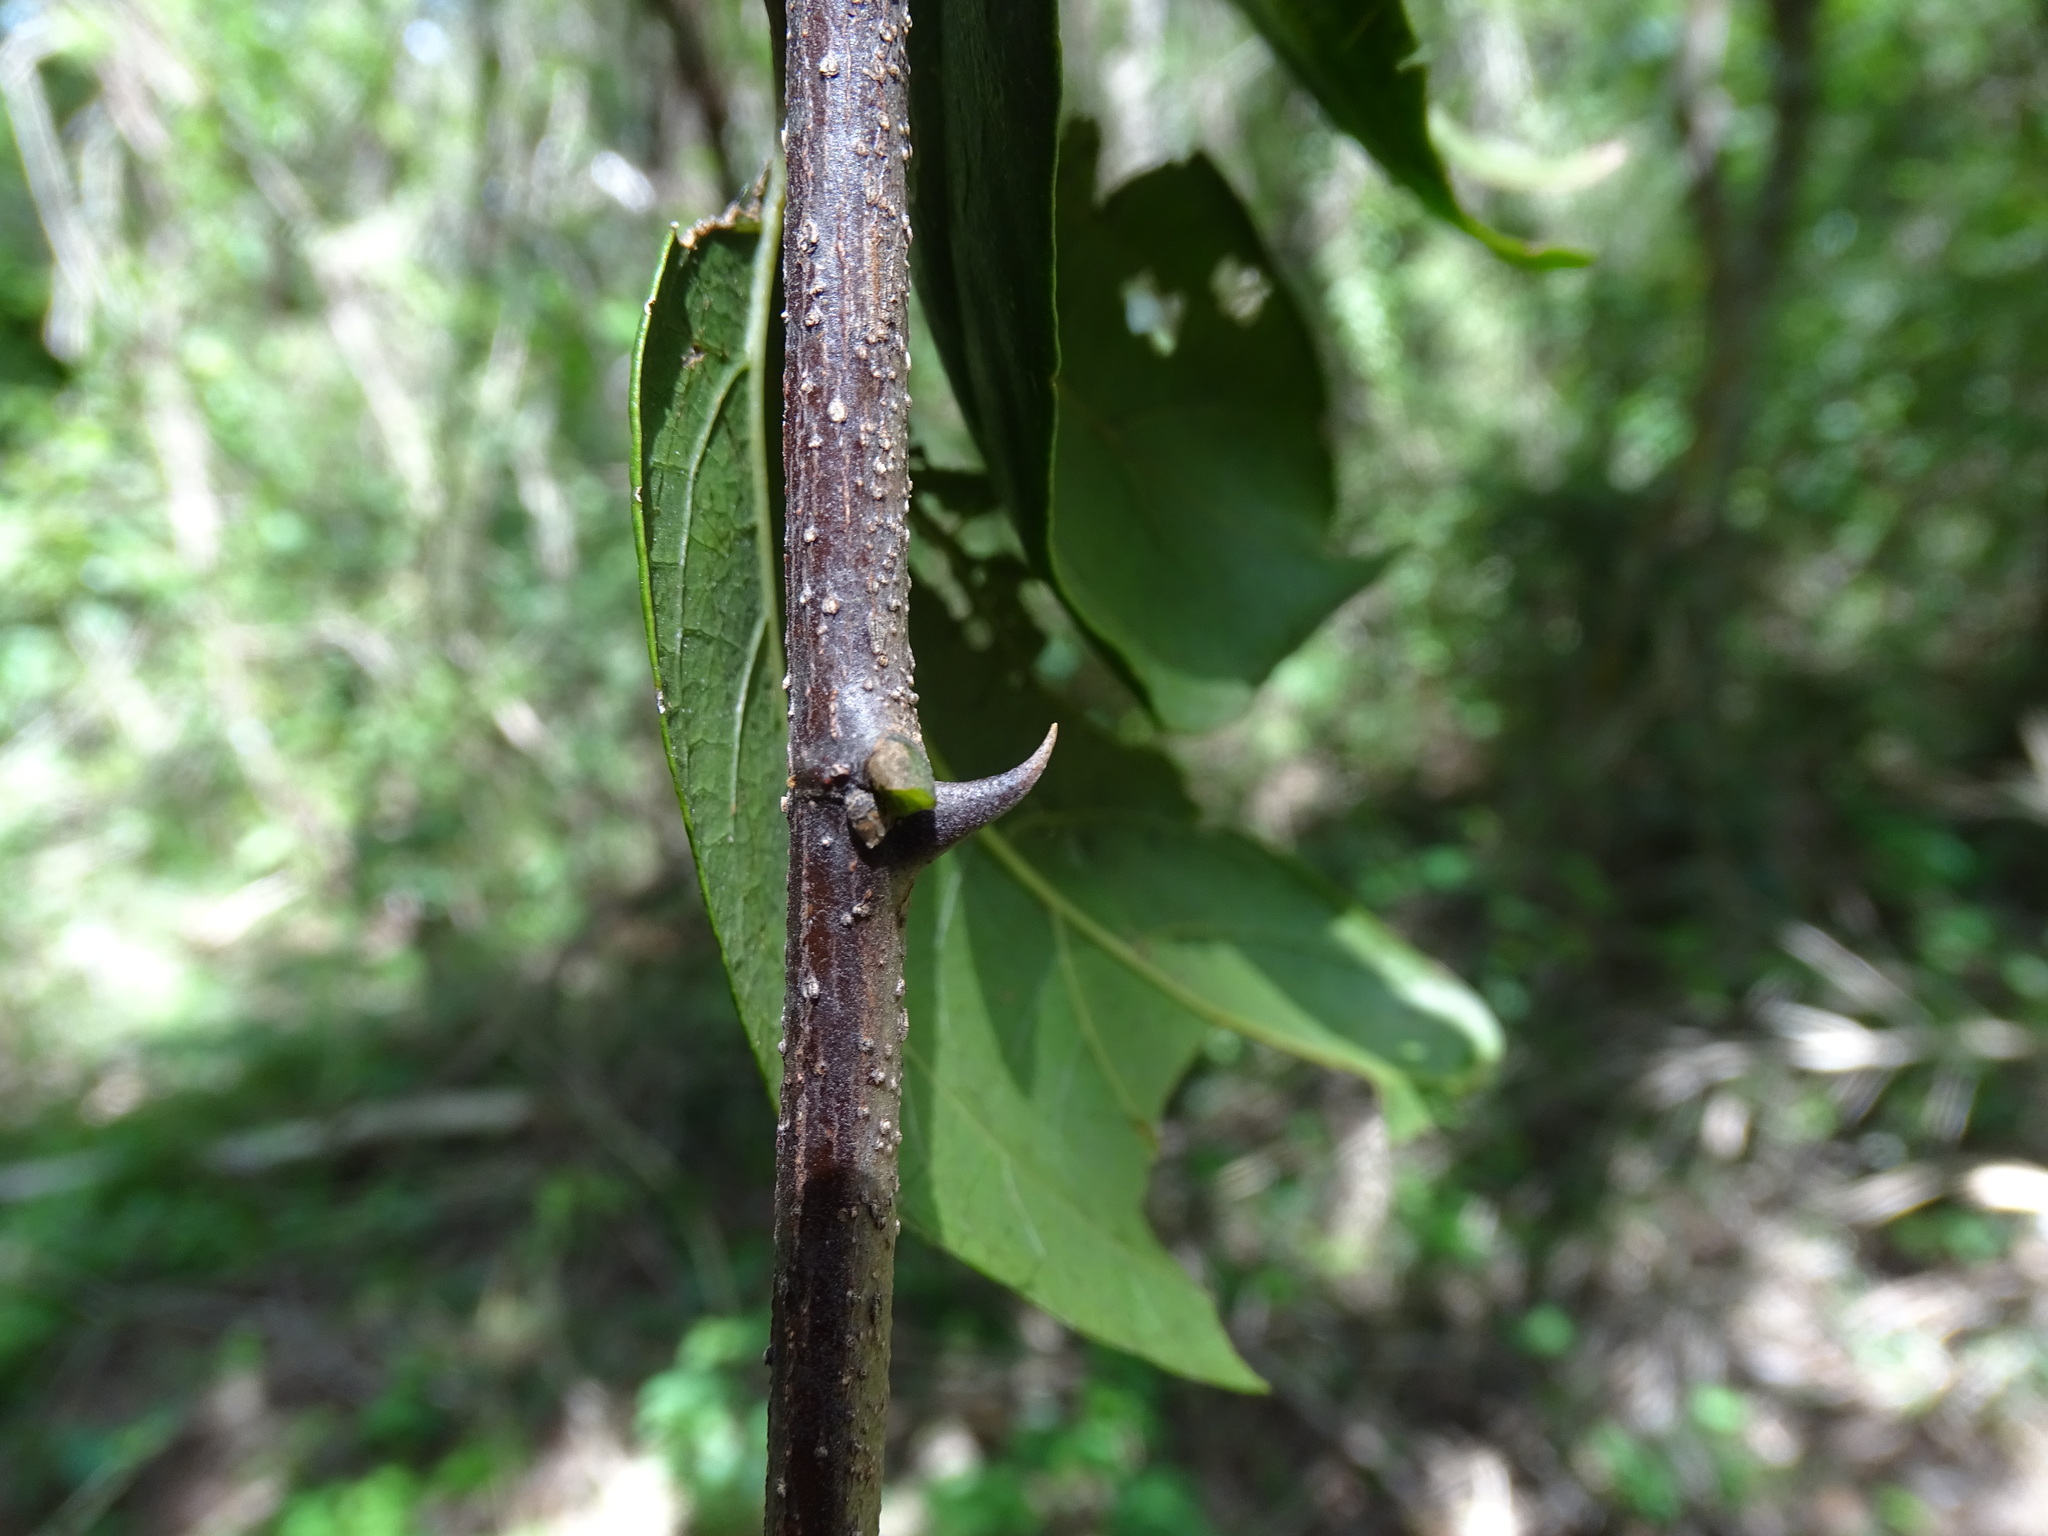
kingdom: Plantae
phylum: Tracheophyta
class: Magnoliopsida
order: Rosales
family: Cannabaceae
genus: Celtis
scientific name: Celtis iguanaea
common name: Iguana hackberry
